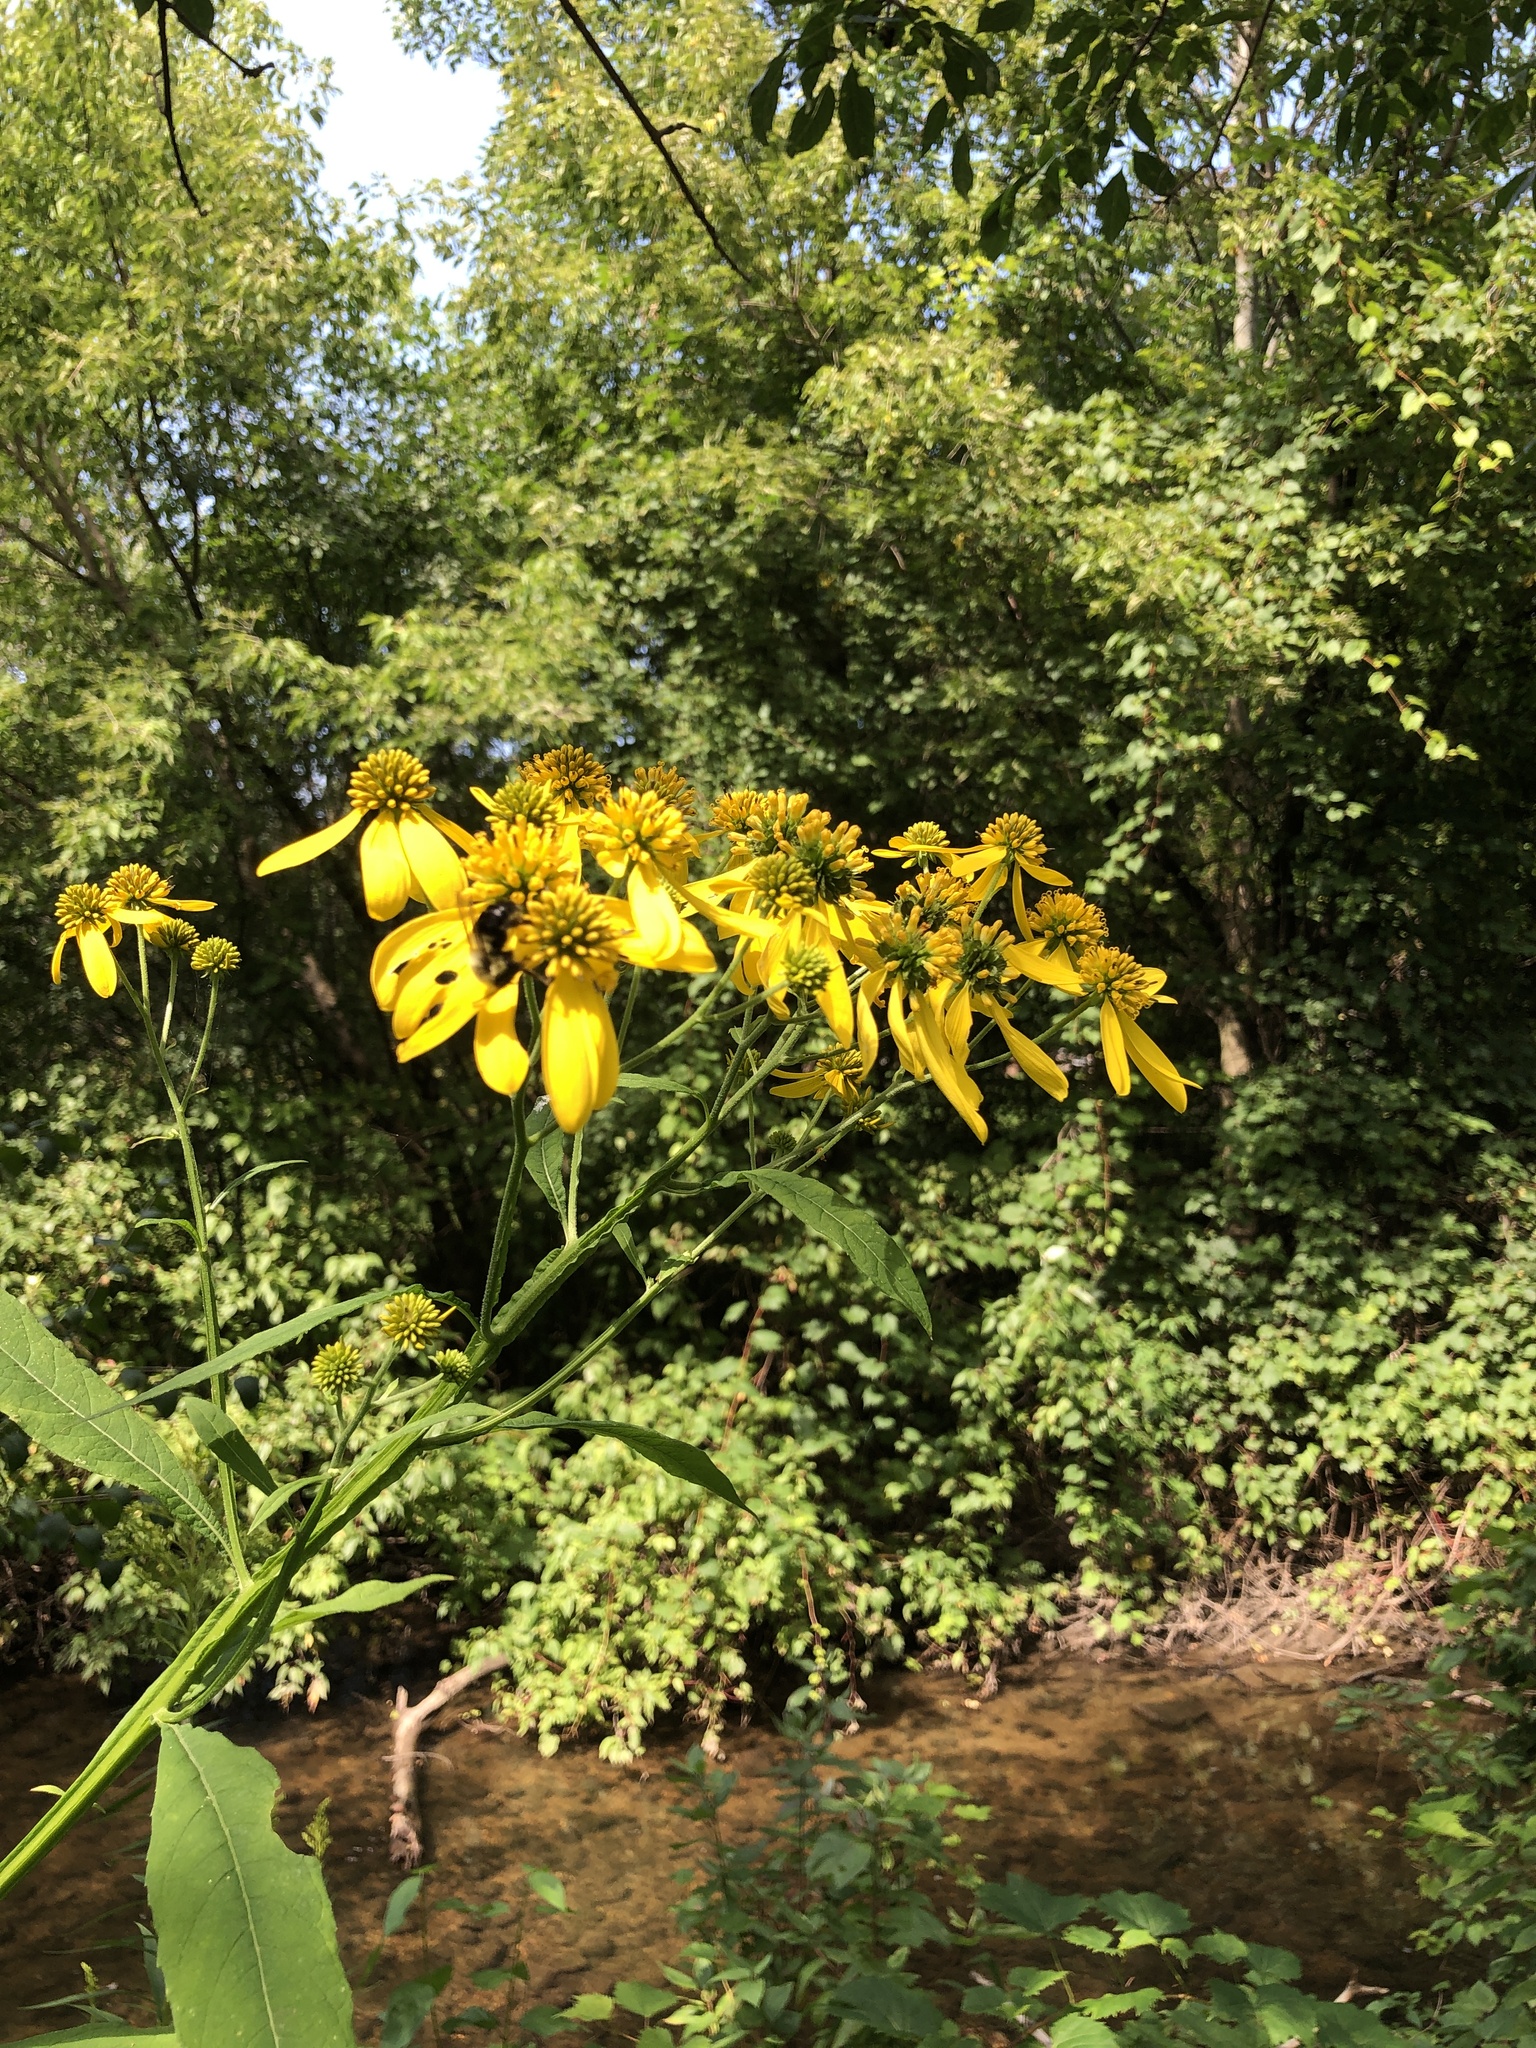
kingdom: Plantae
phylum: Tracheophyta
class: Magnoliopsida
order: Asterales
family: Asteraceae
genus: Verbesina
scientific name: Verbesina alternifolia
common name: Wingstem
